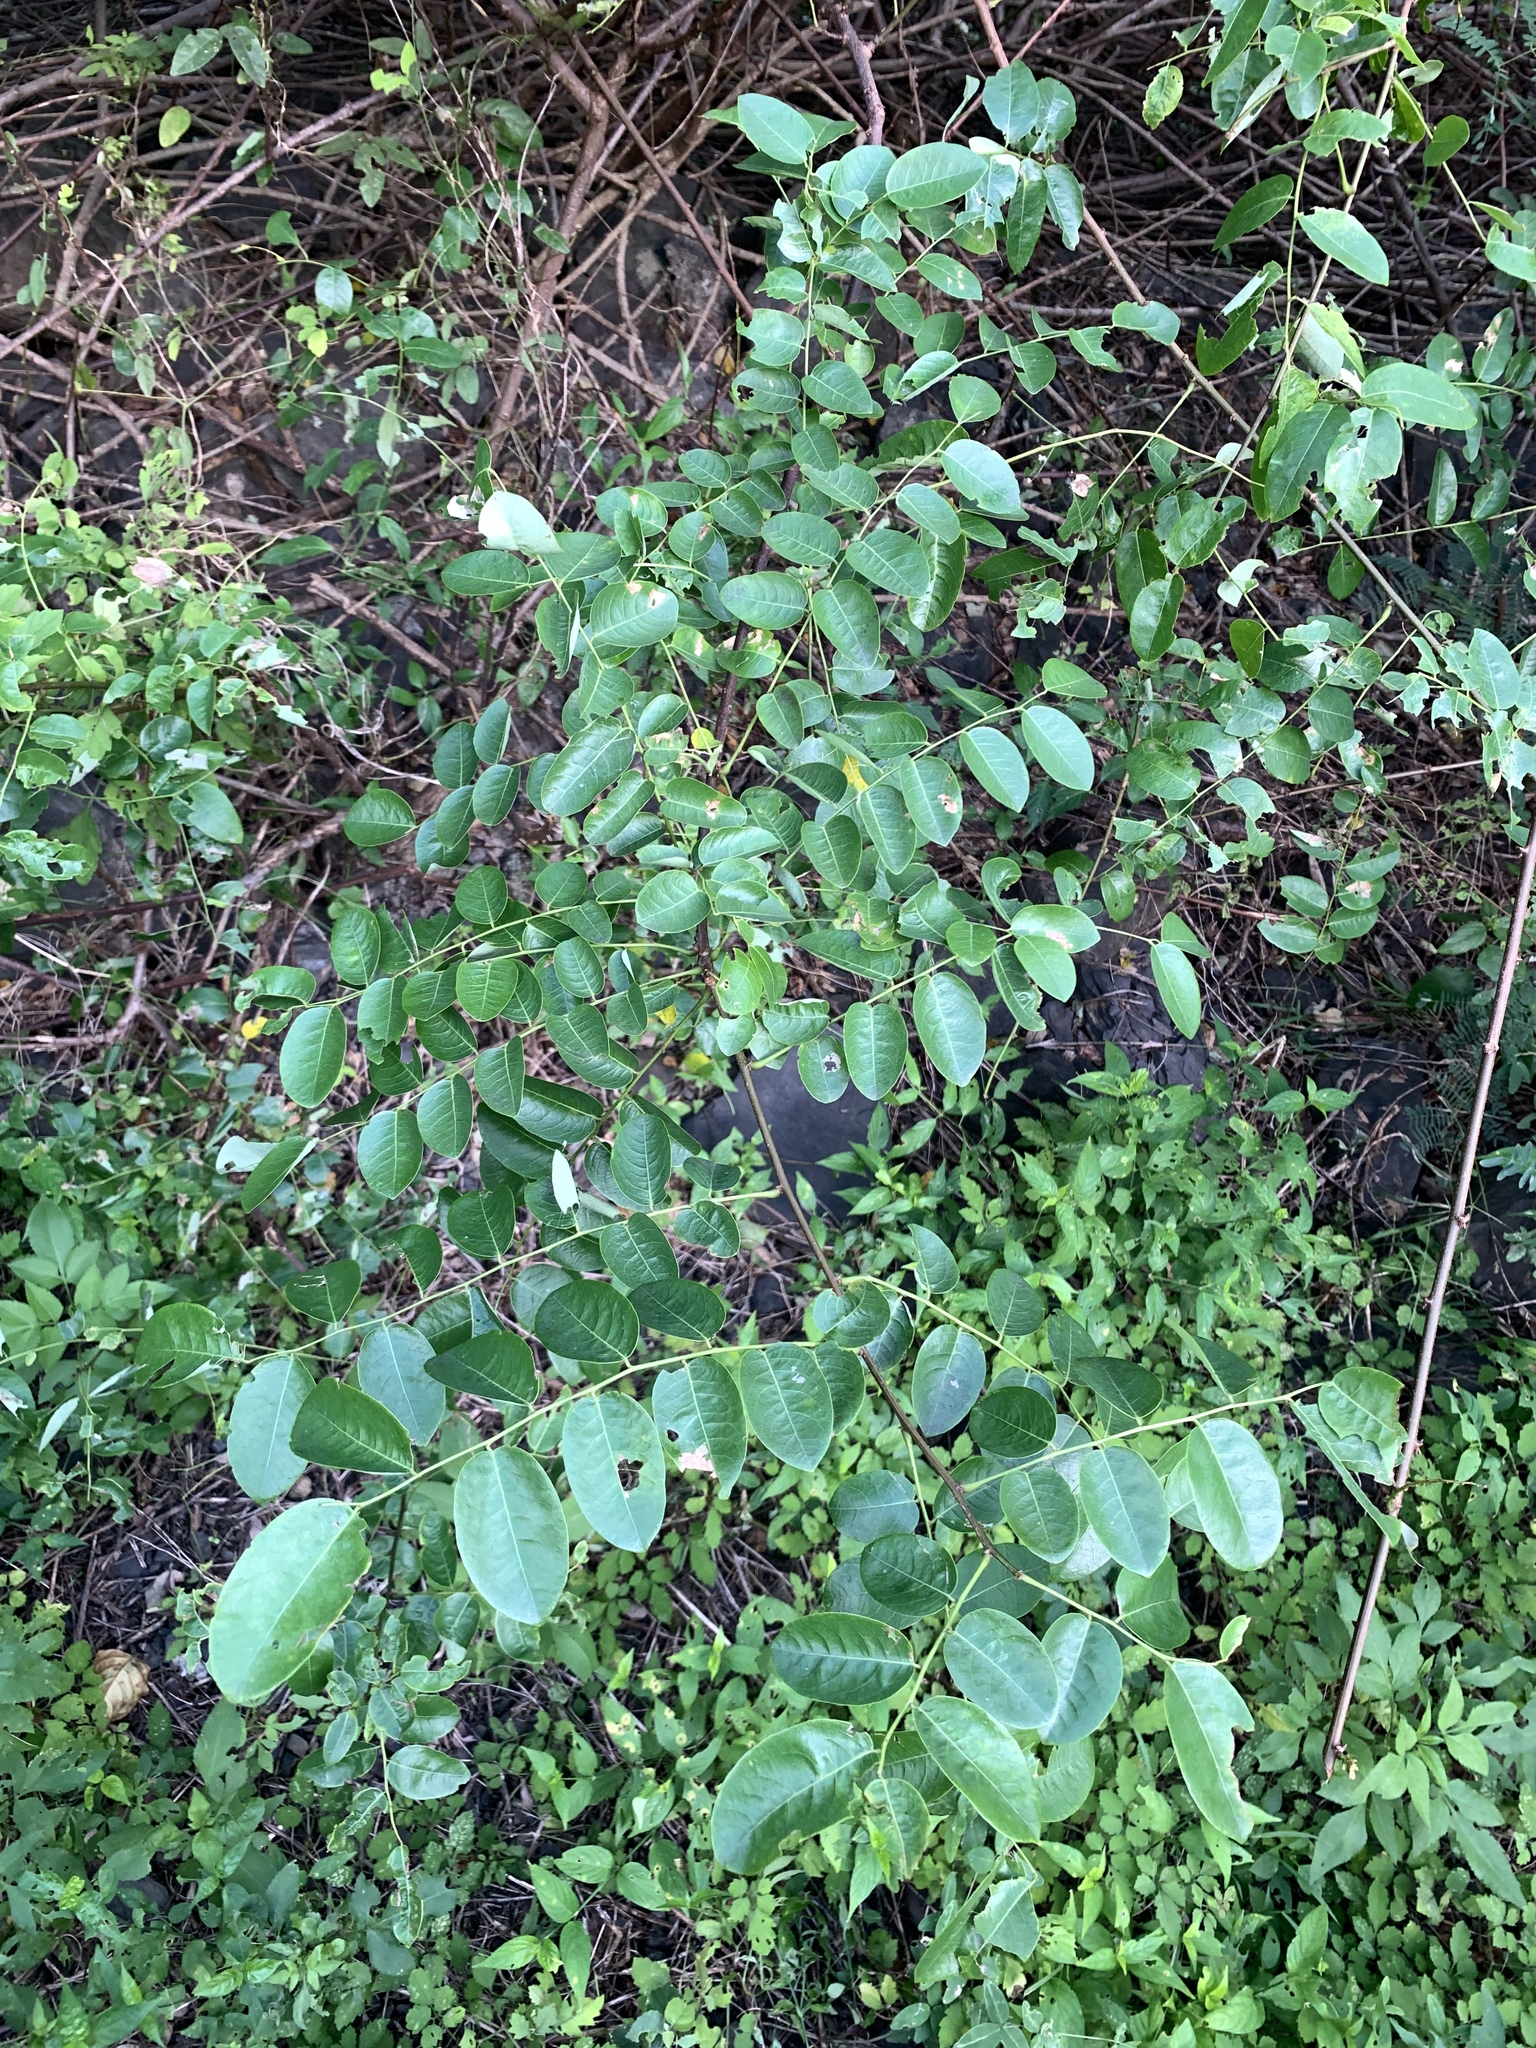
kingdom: Plantae
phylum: Tracheophyta
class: Magnoliopsida
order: Malpighiales
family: Phyllanthaceae
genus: Phyllanthus
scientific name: Phyllanthus reticulatus
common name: Potato bush
